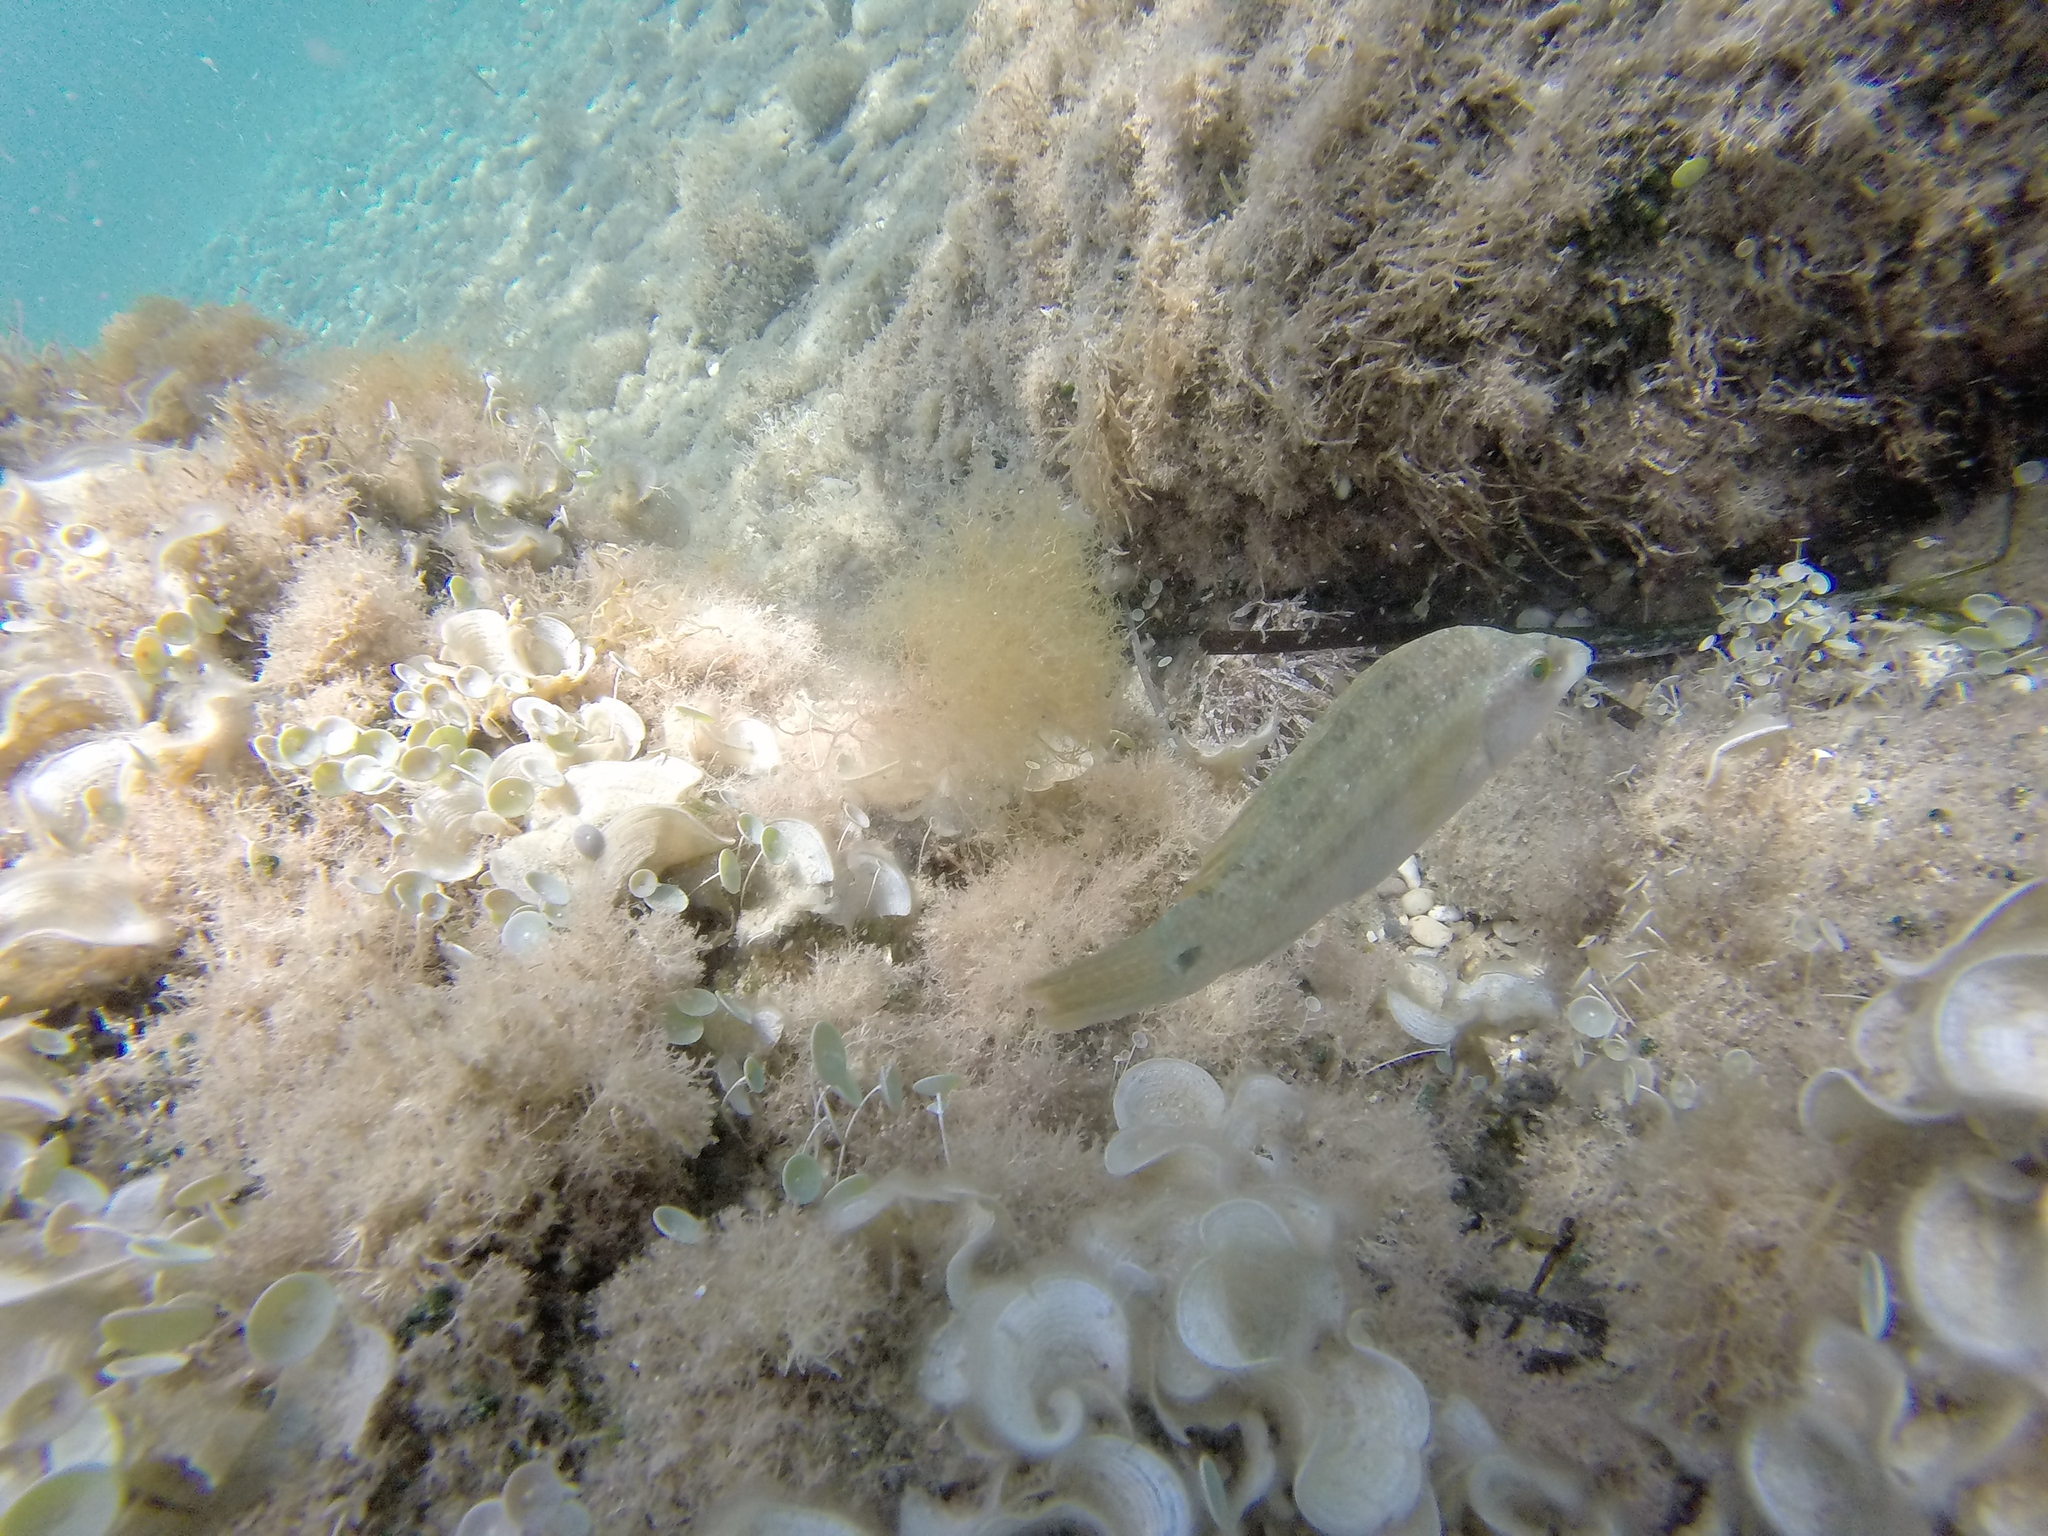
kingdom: Animalia
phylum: Chordata
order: Perciformes
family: Labridae
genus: Symphodus
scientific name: Symphodus tinca
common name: Peacock wrasse
